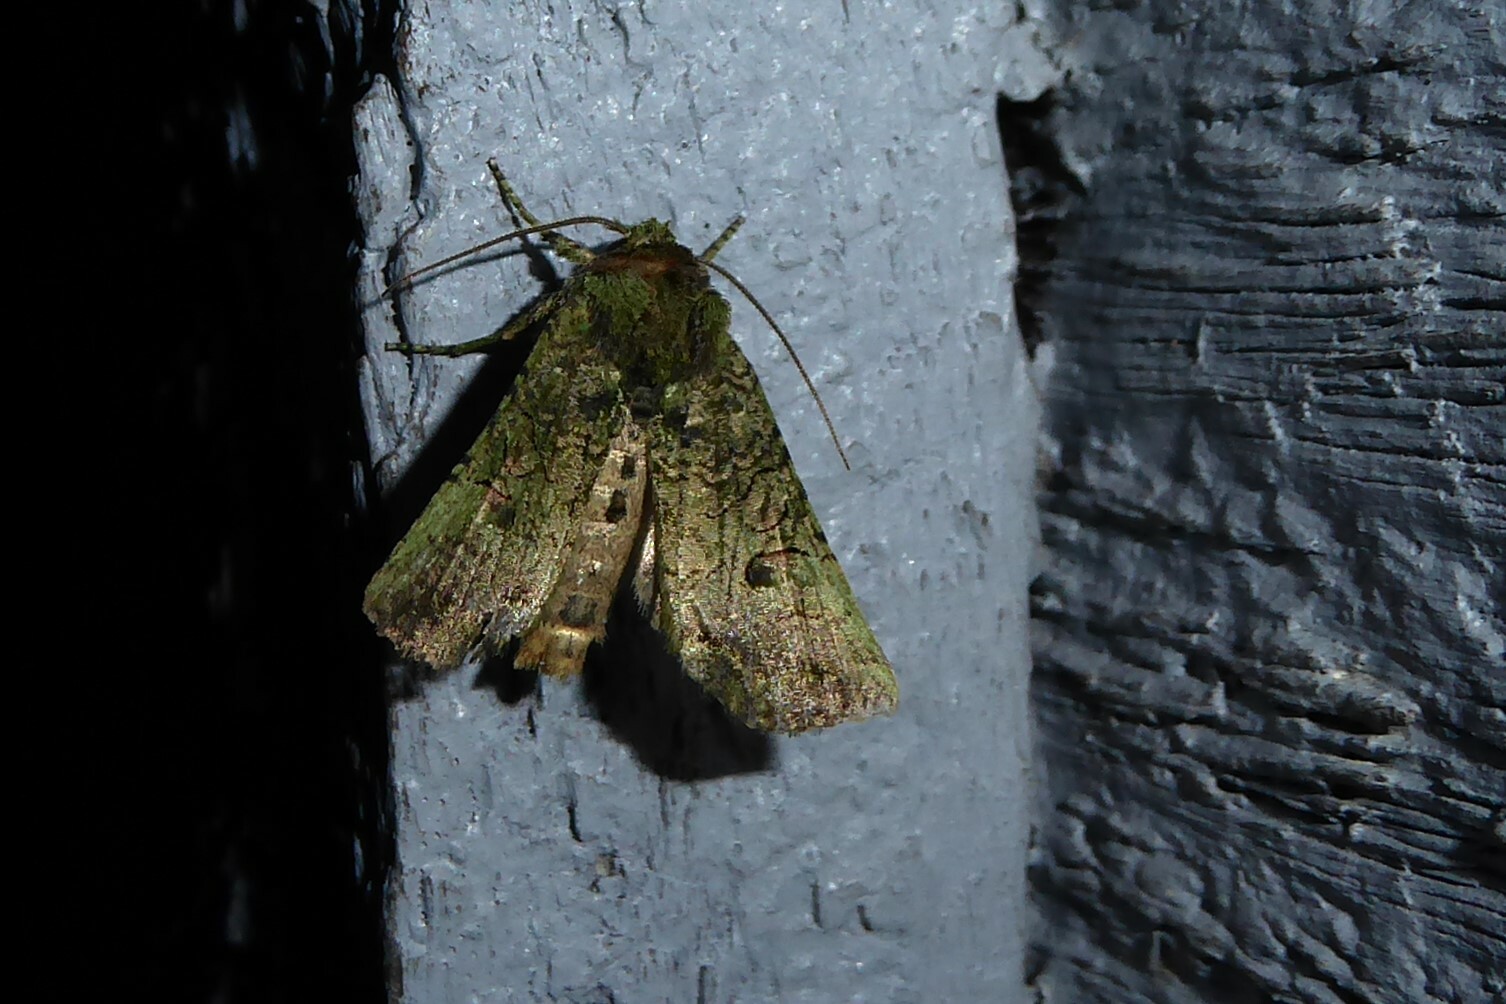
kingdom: Animalia
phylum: Arthropoda
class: Insecta
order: Lepidoptera
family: Noctuidae
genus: Meterana
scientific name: Meterana levis
